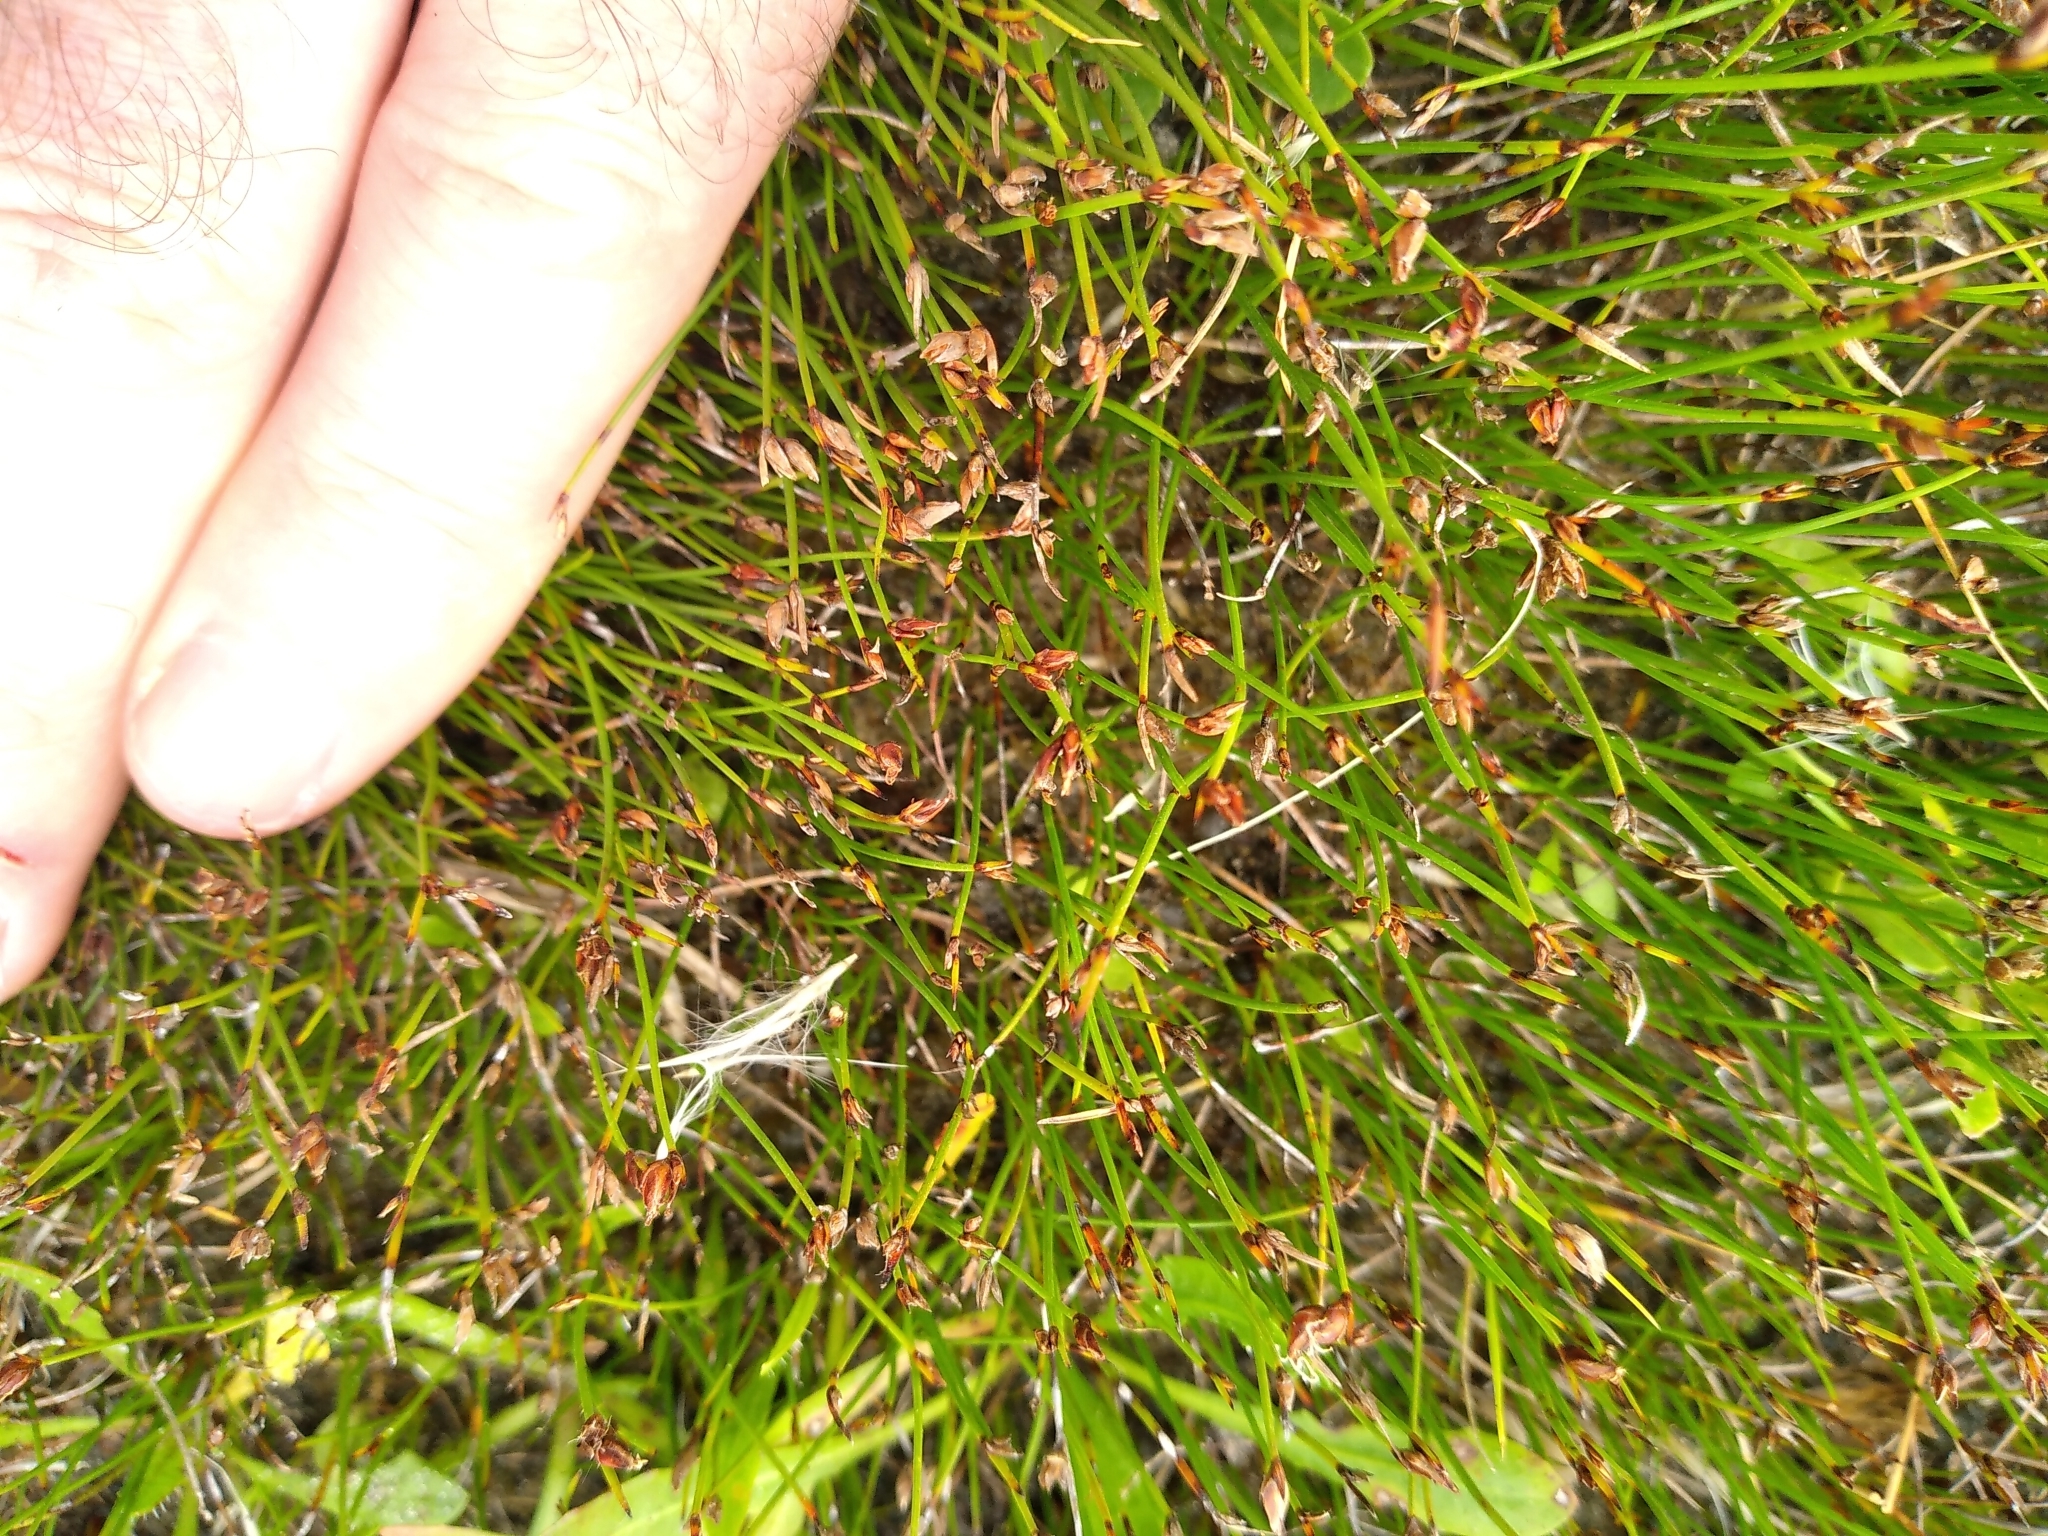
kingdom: Plantae
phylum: Tracheophyta
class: Liliopsida
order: Poales
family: Cyperaceae
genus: Schoenus
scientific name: Schoenus nitens
